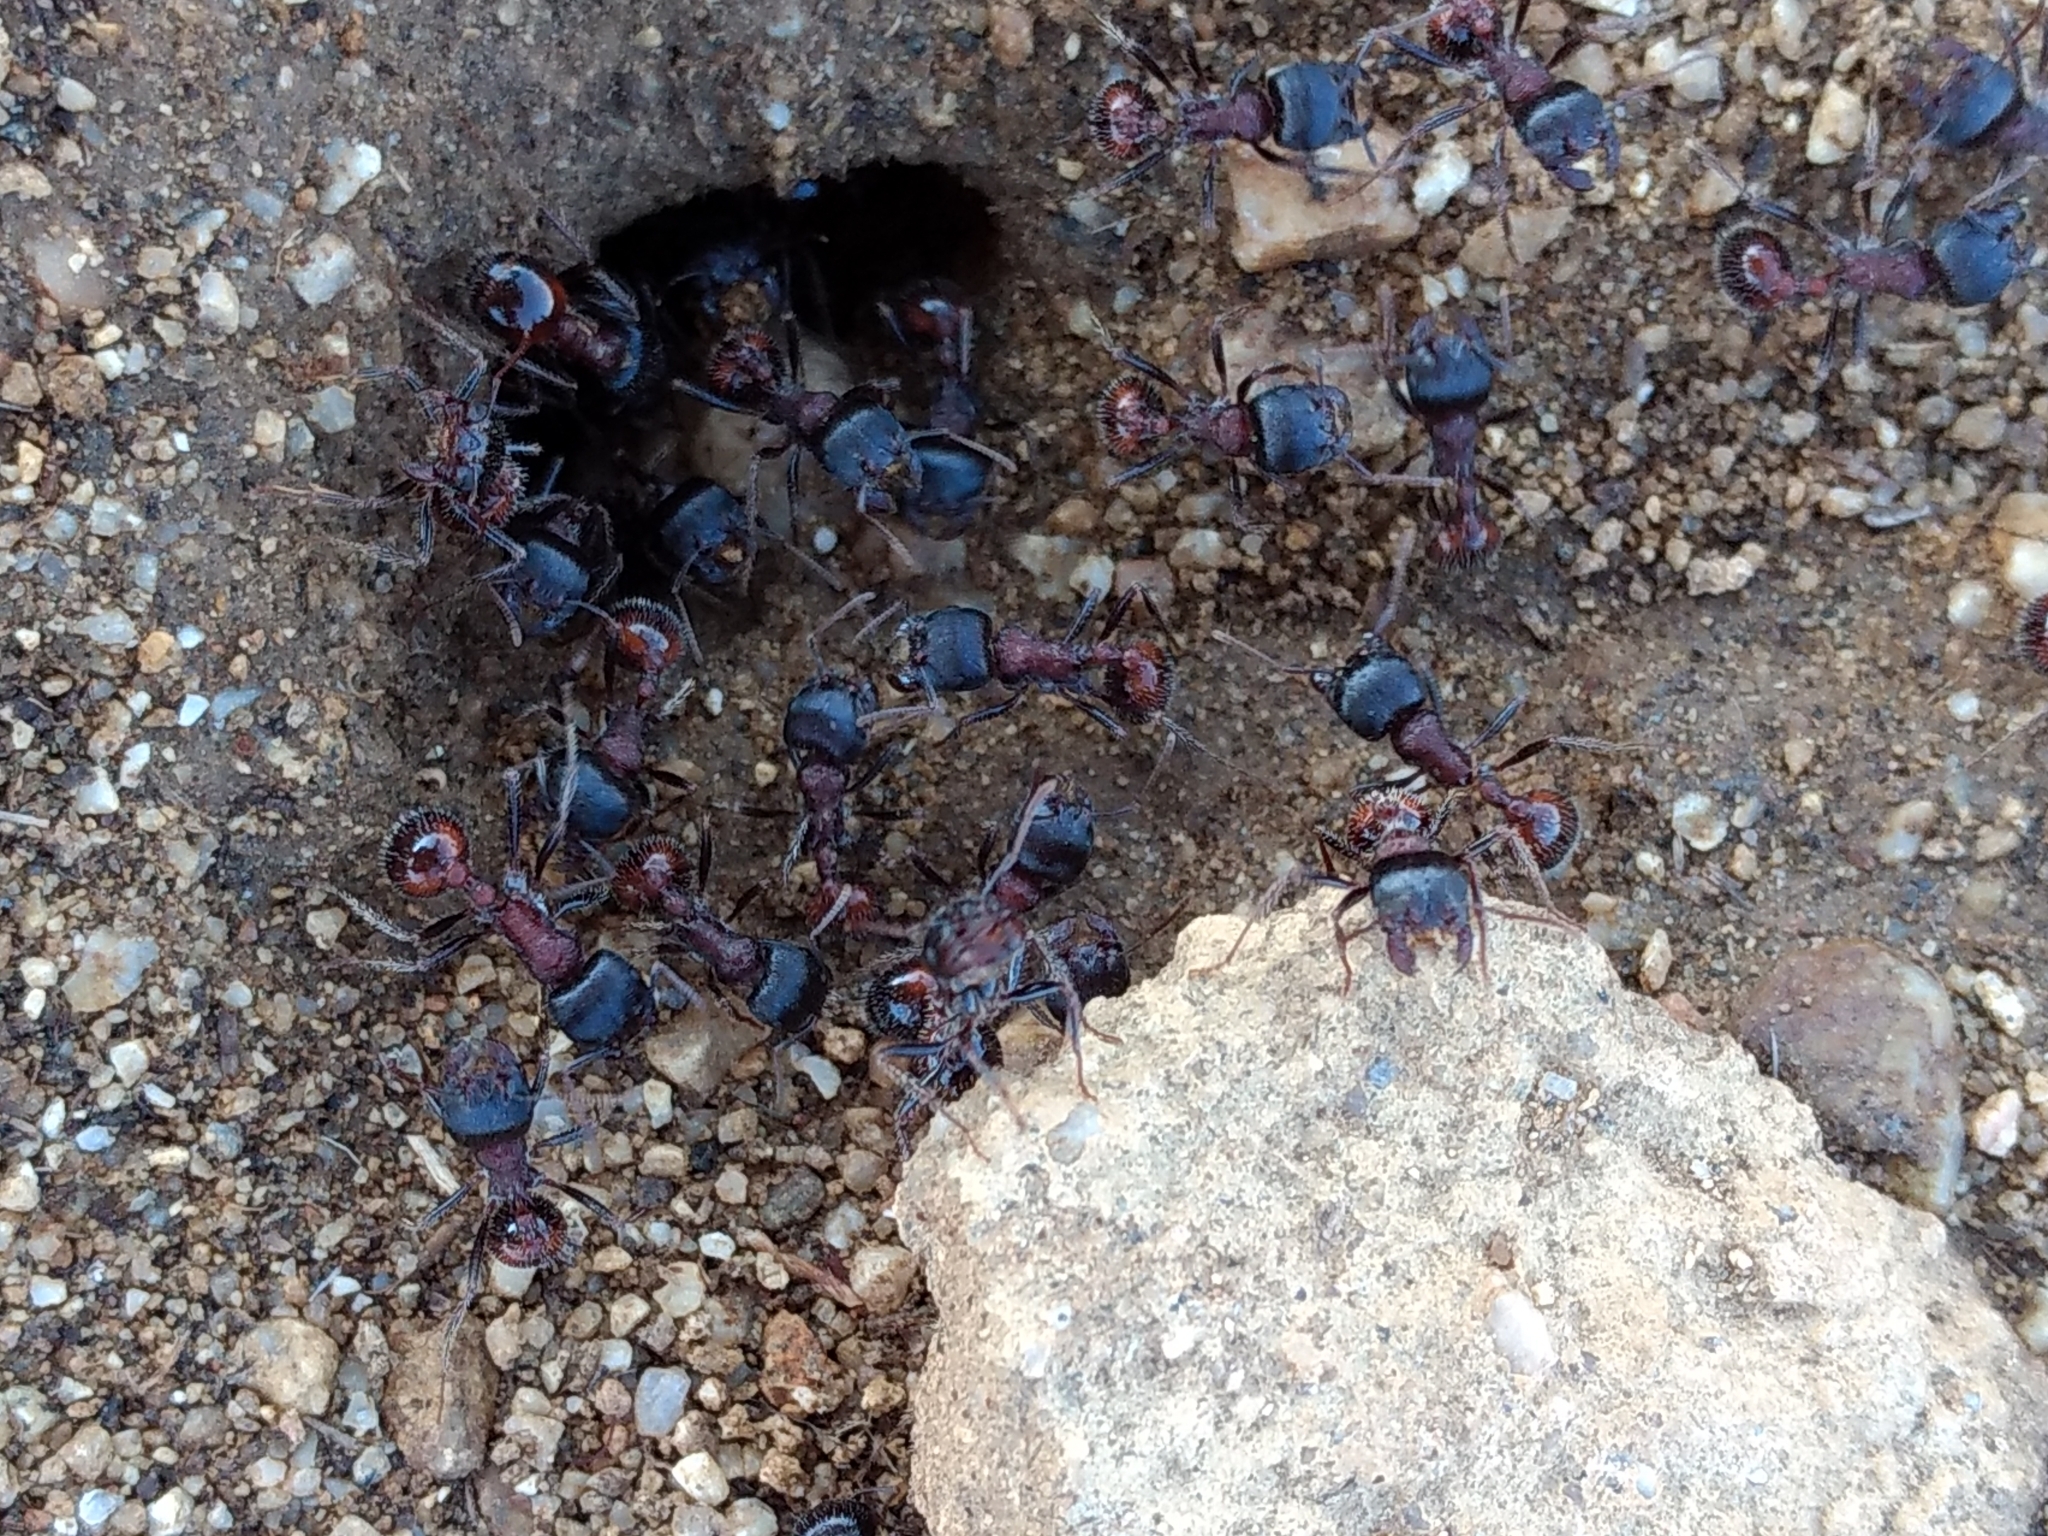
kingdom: Animalia
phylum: Arthropoda
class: Insecta
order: Hymenoptera
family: Formicidae
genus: Pogonomyrmex
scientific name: Pogonomyrmex rugosus
